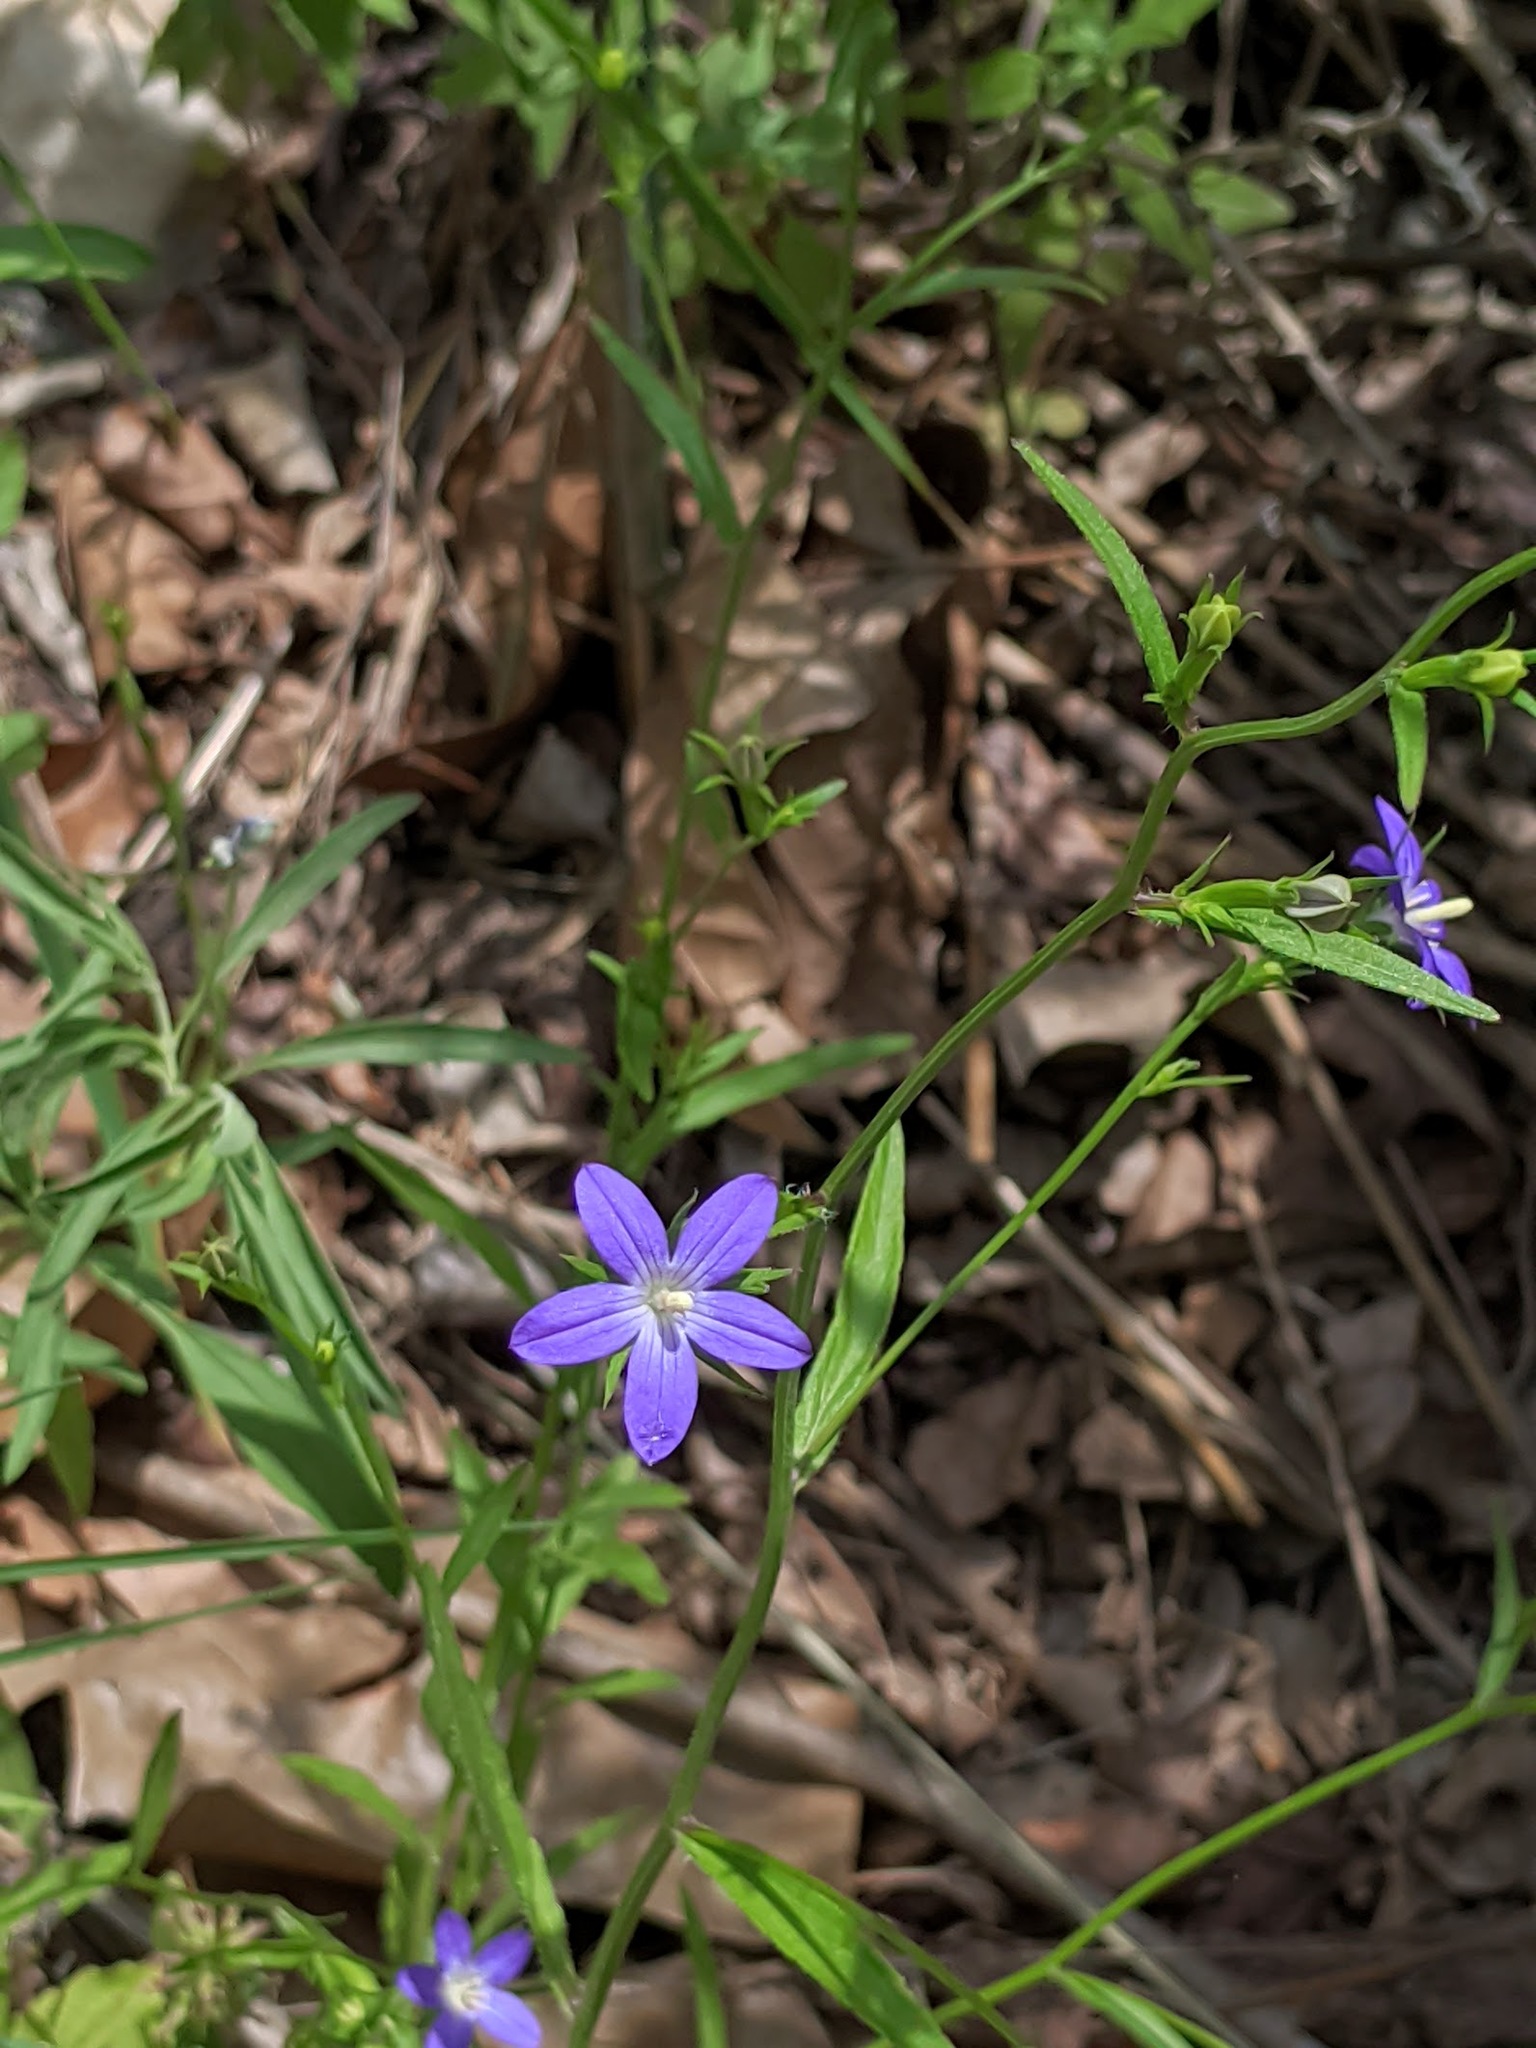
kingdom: Plantae
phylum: Tracheophyta
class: Magnoliopsida
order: Asterales
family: Campanulaceae
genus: Triodanis
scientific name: Triodanis biflora
